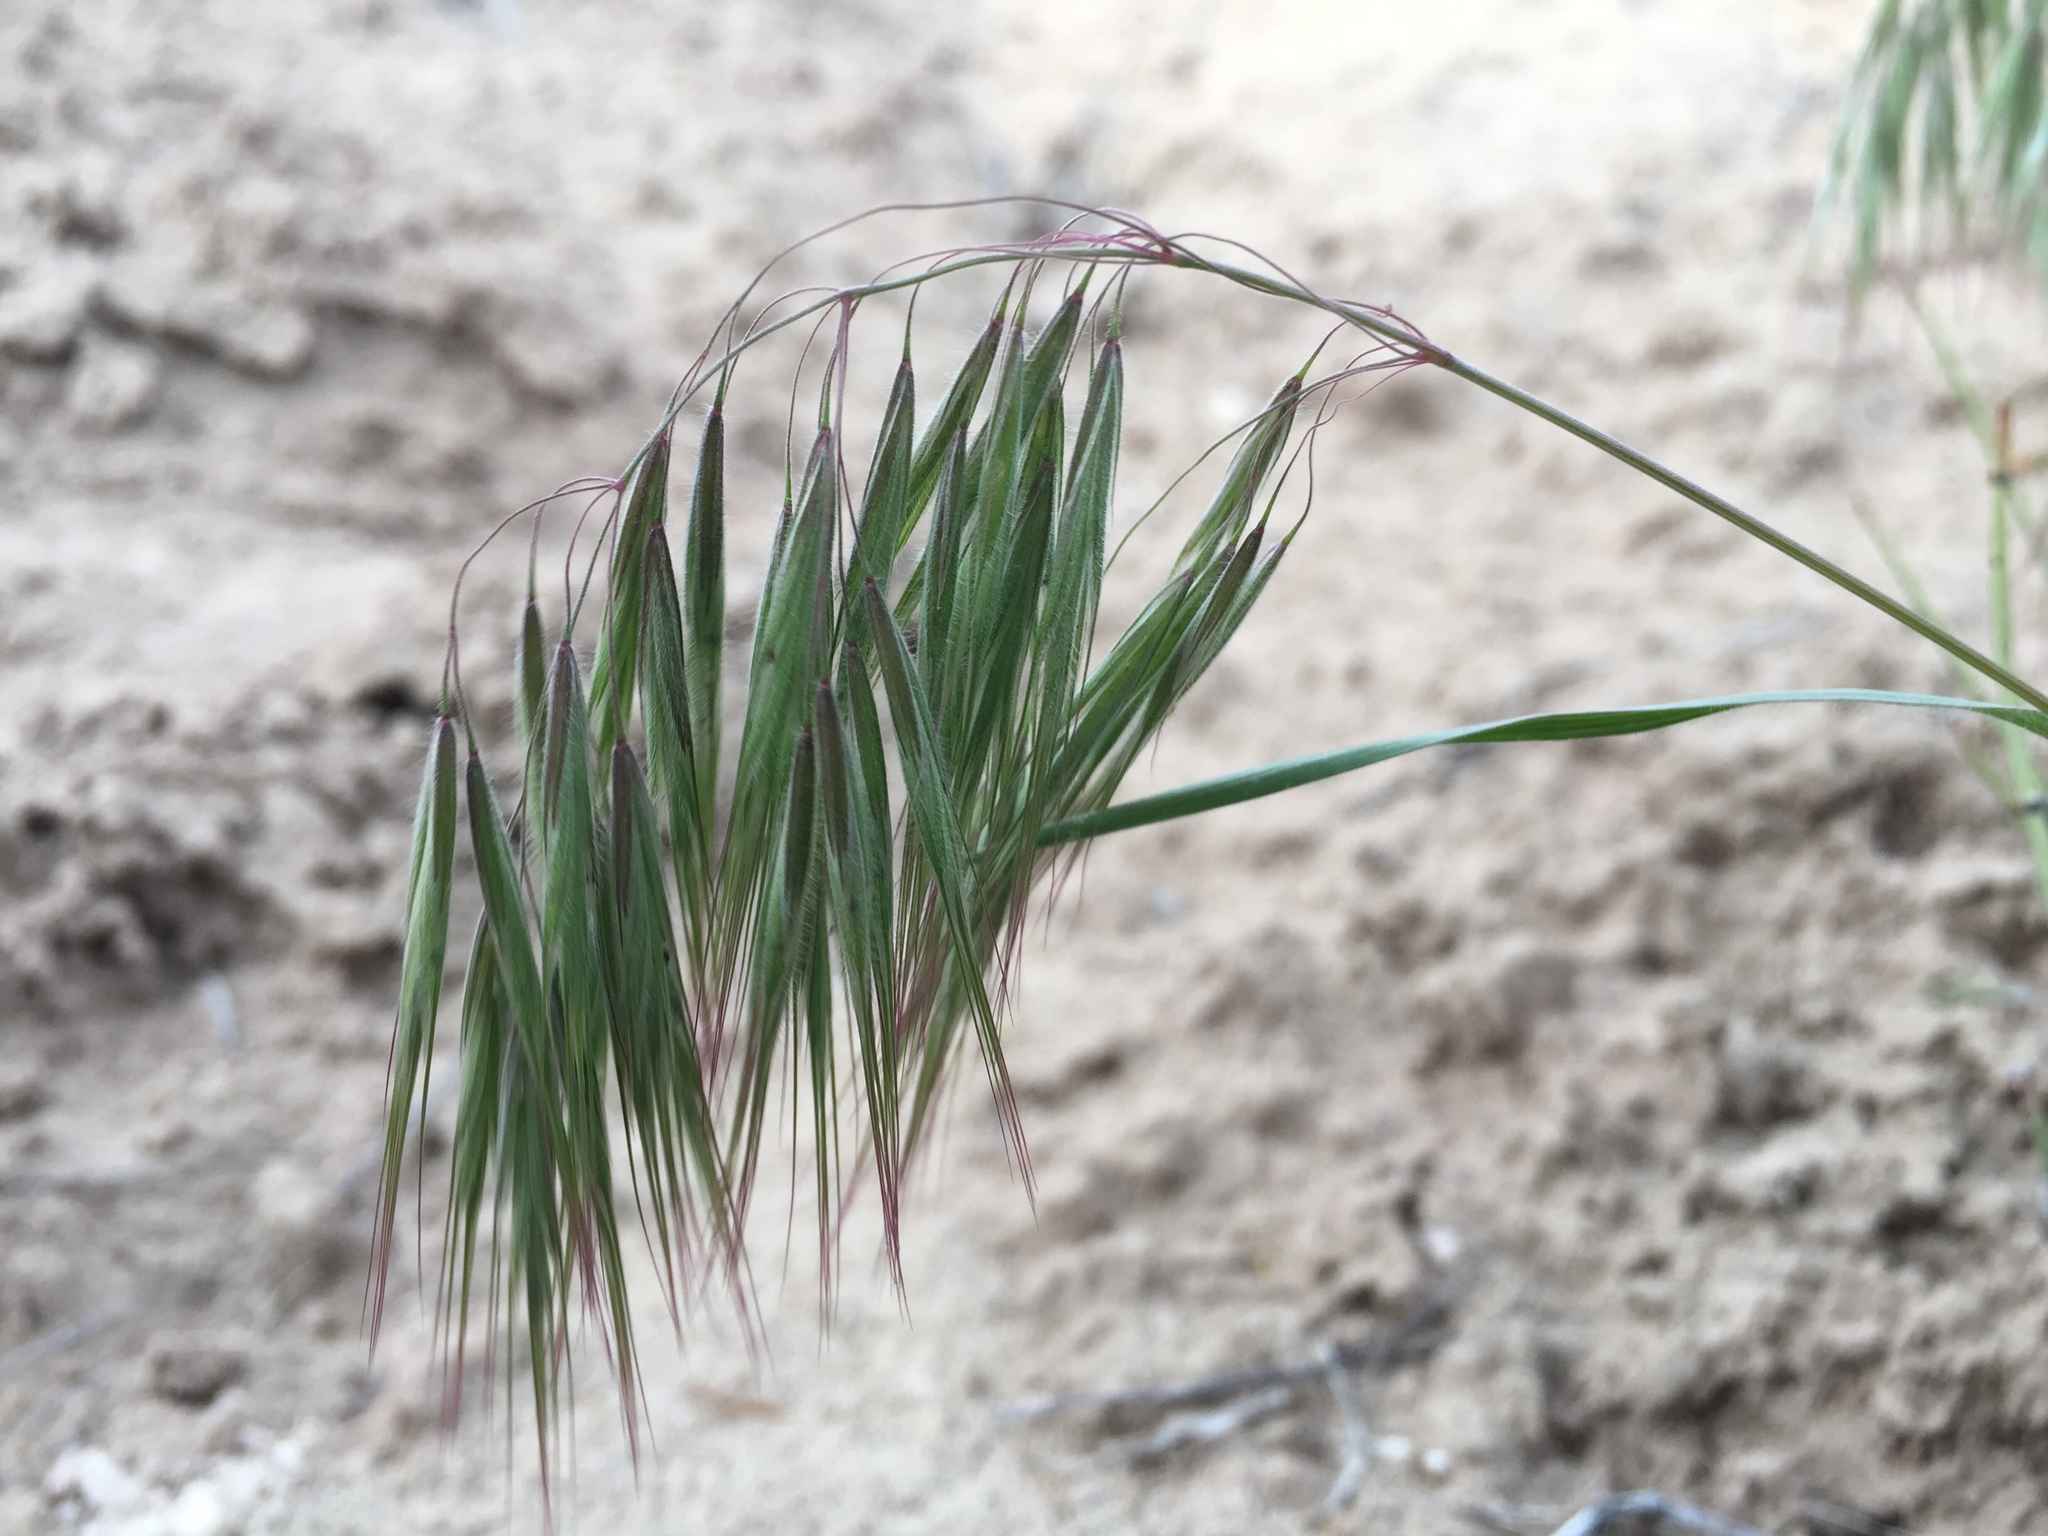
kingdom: Plantae
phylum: Tracheophyta
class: Liliopsida
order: Poales
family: Poaceae
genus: Bromus
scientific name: Bromus tectorum
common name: Cheatgrass
